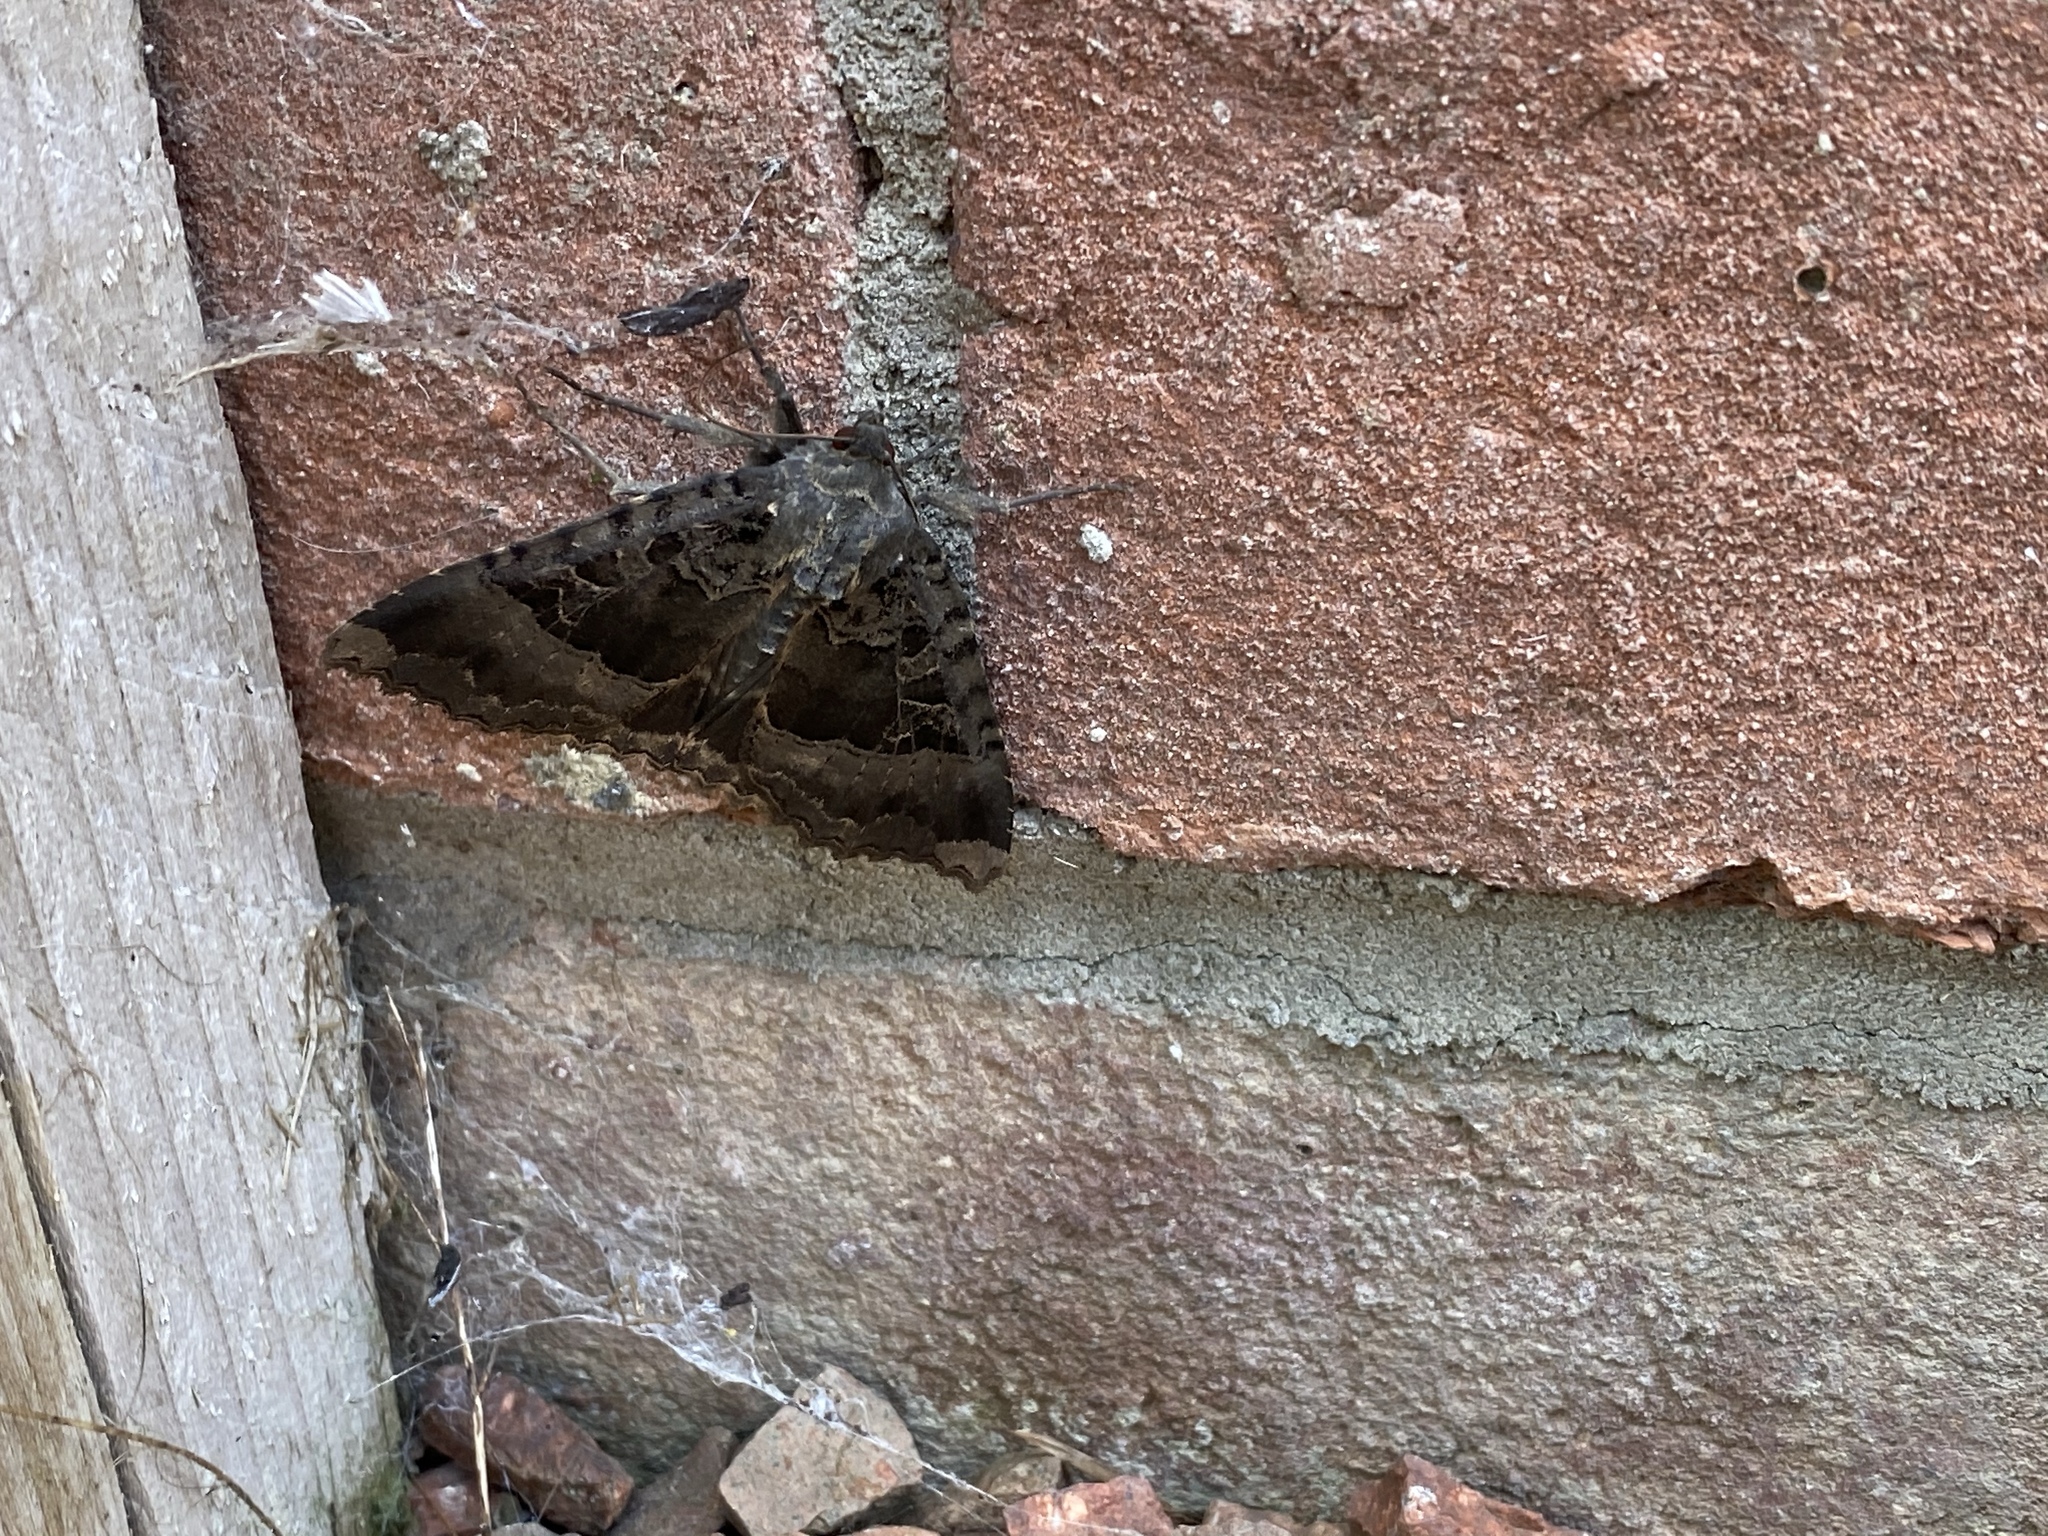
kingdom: Animalia
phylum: Arthropoda
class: Insecta
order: Lepidoptera
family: Noctuidae
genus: Mormo
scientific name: Mormo maura
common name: Old lady
